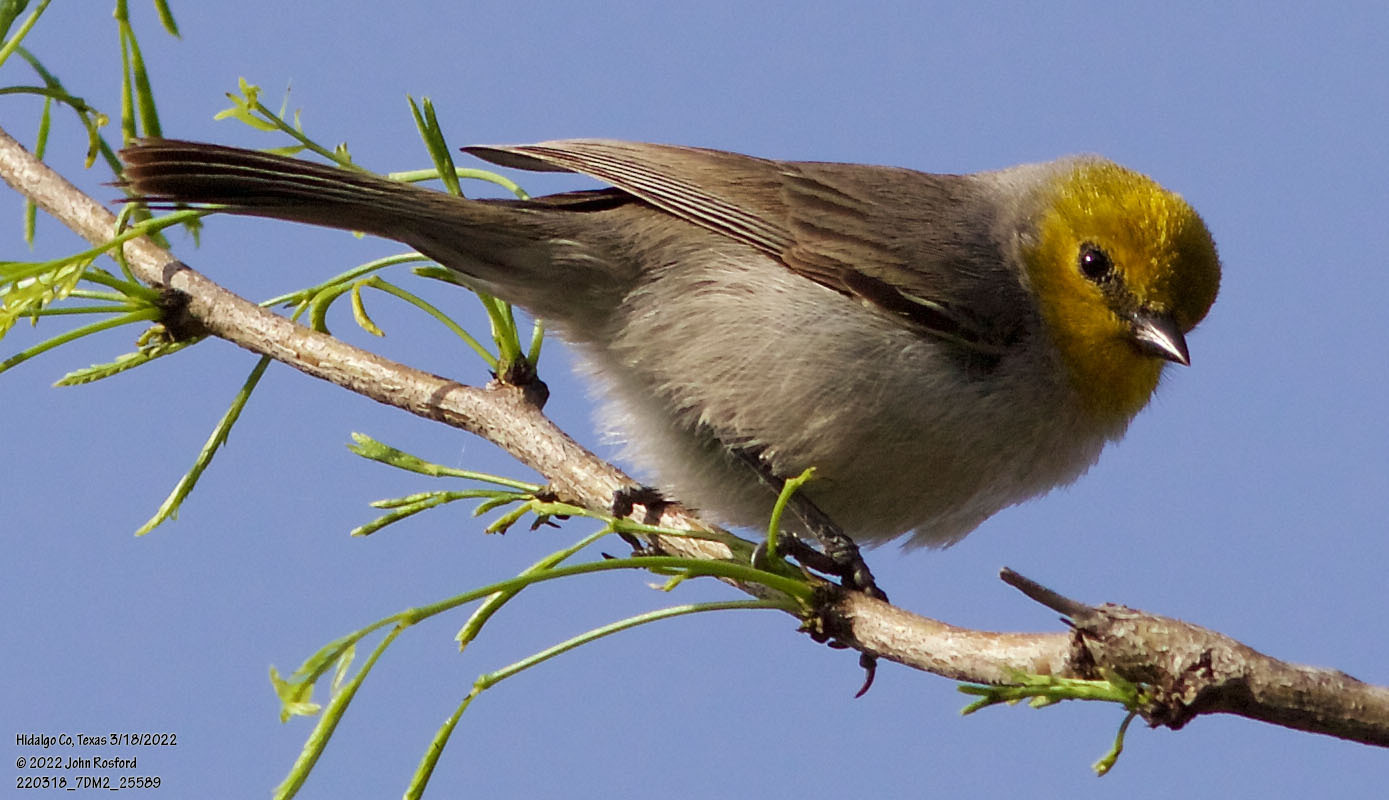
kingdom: Animalia
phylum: Chordata
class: Aves
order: Passeriformes
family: Remizidae
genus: Auriparus
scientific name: Auriparus flaviceps
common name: Verdin
